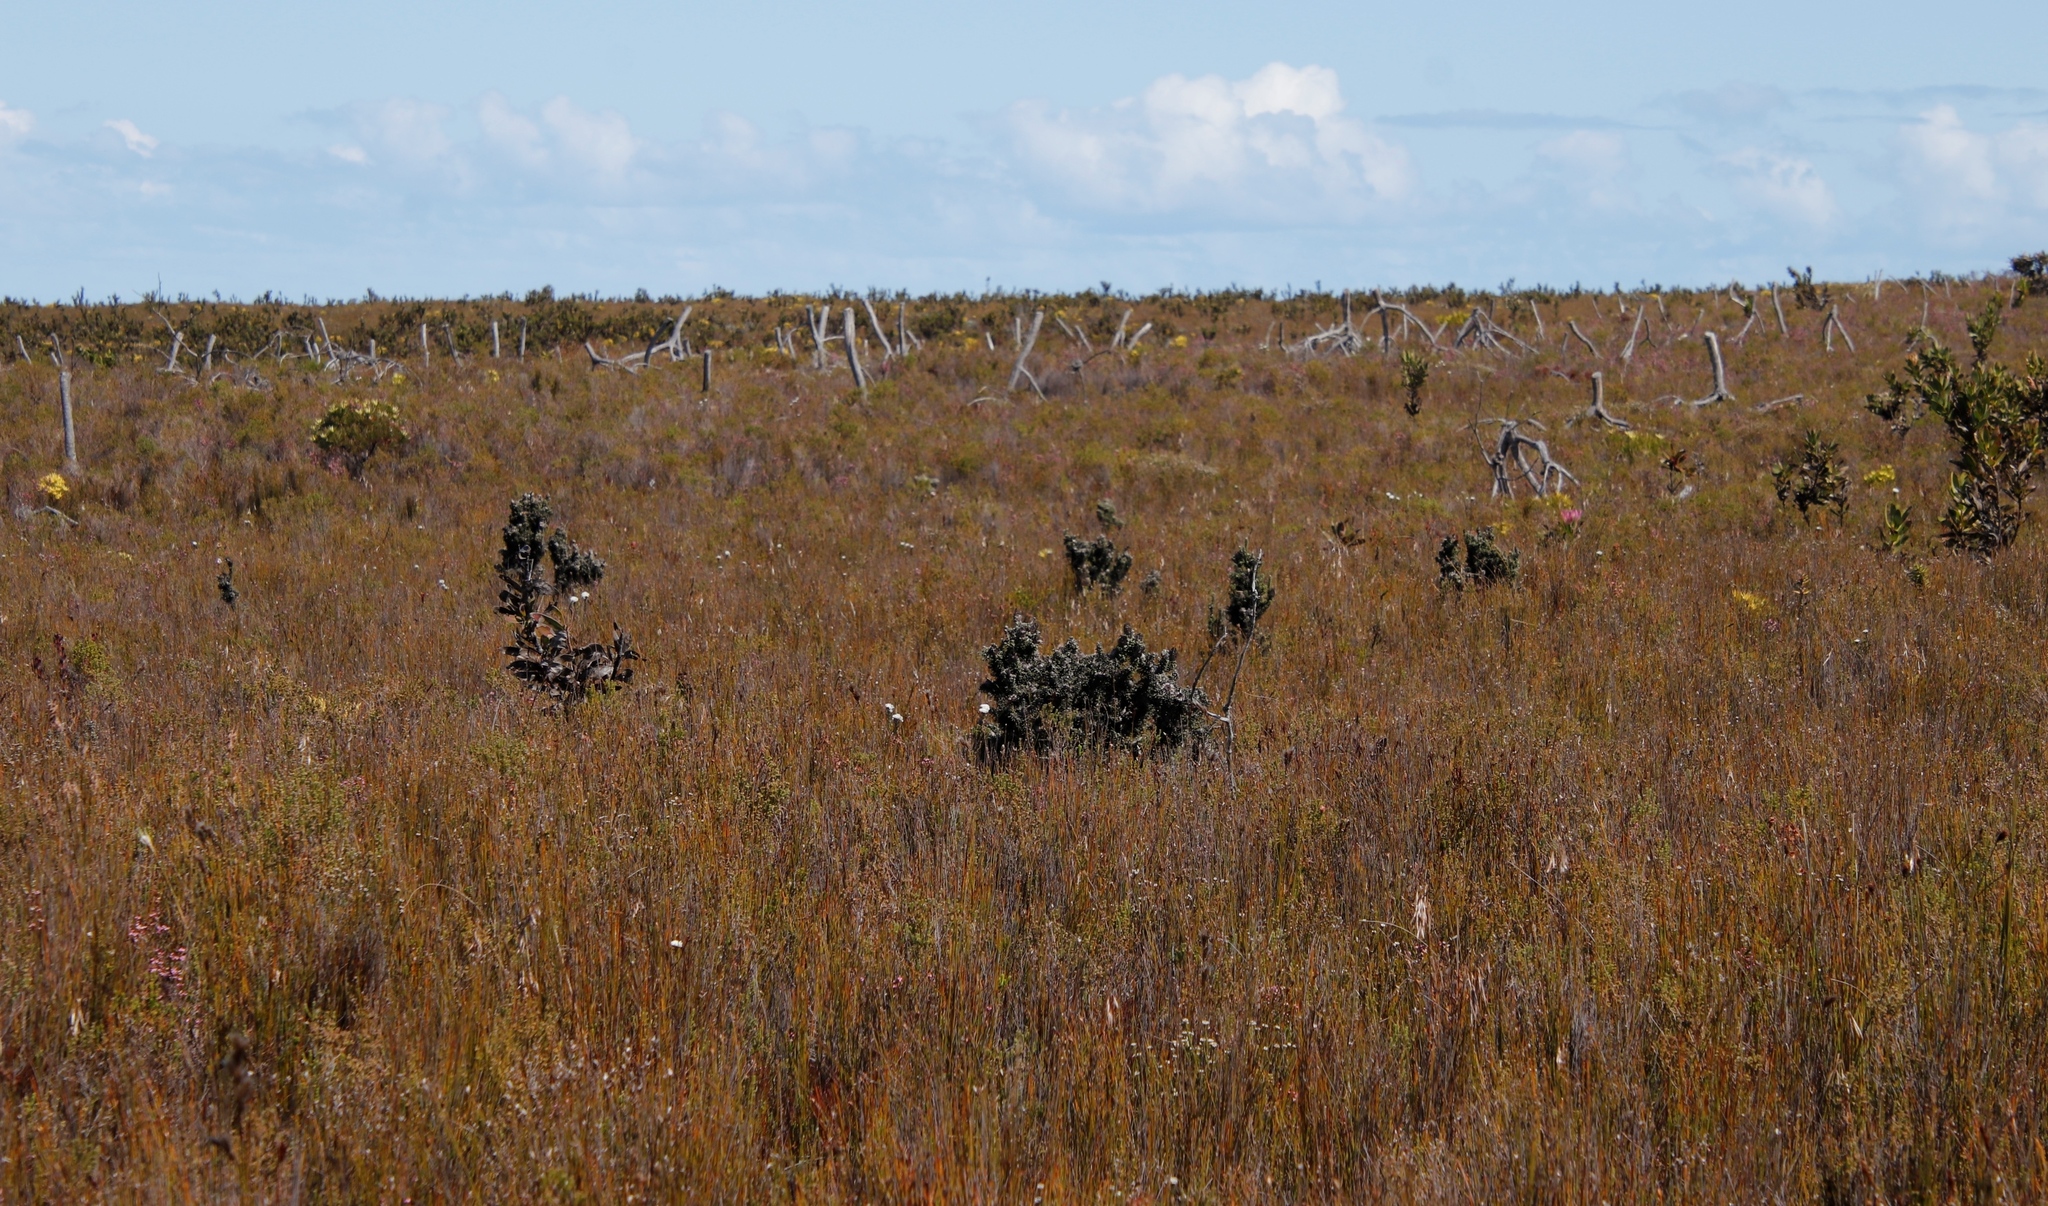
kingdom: Plantae
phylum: Tracheophyta
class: Magnoliopsida
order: Asterales
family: Asteraceae
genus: Phaenocoma
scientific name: Phaenocoma prolifera
